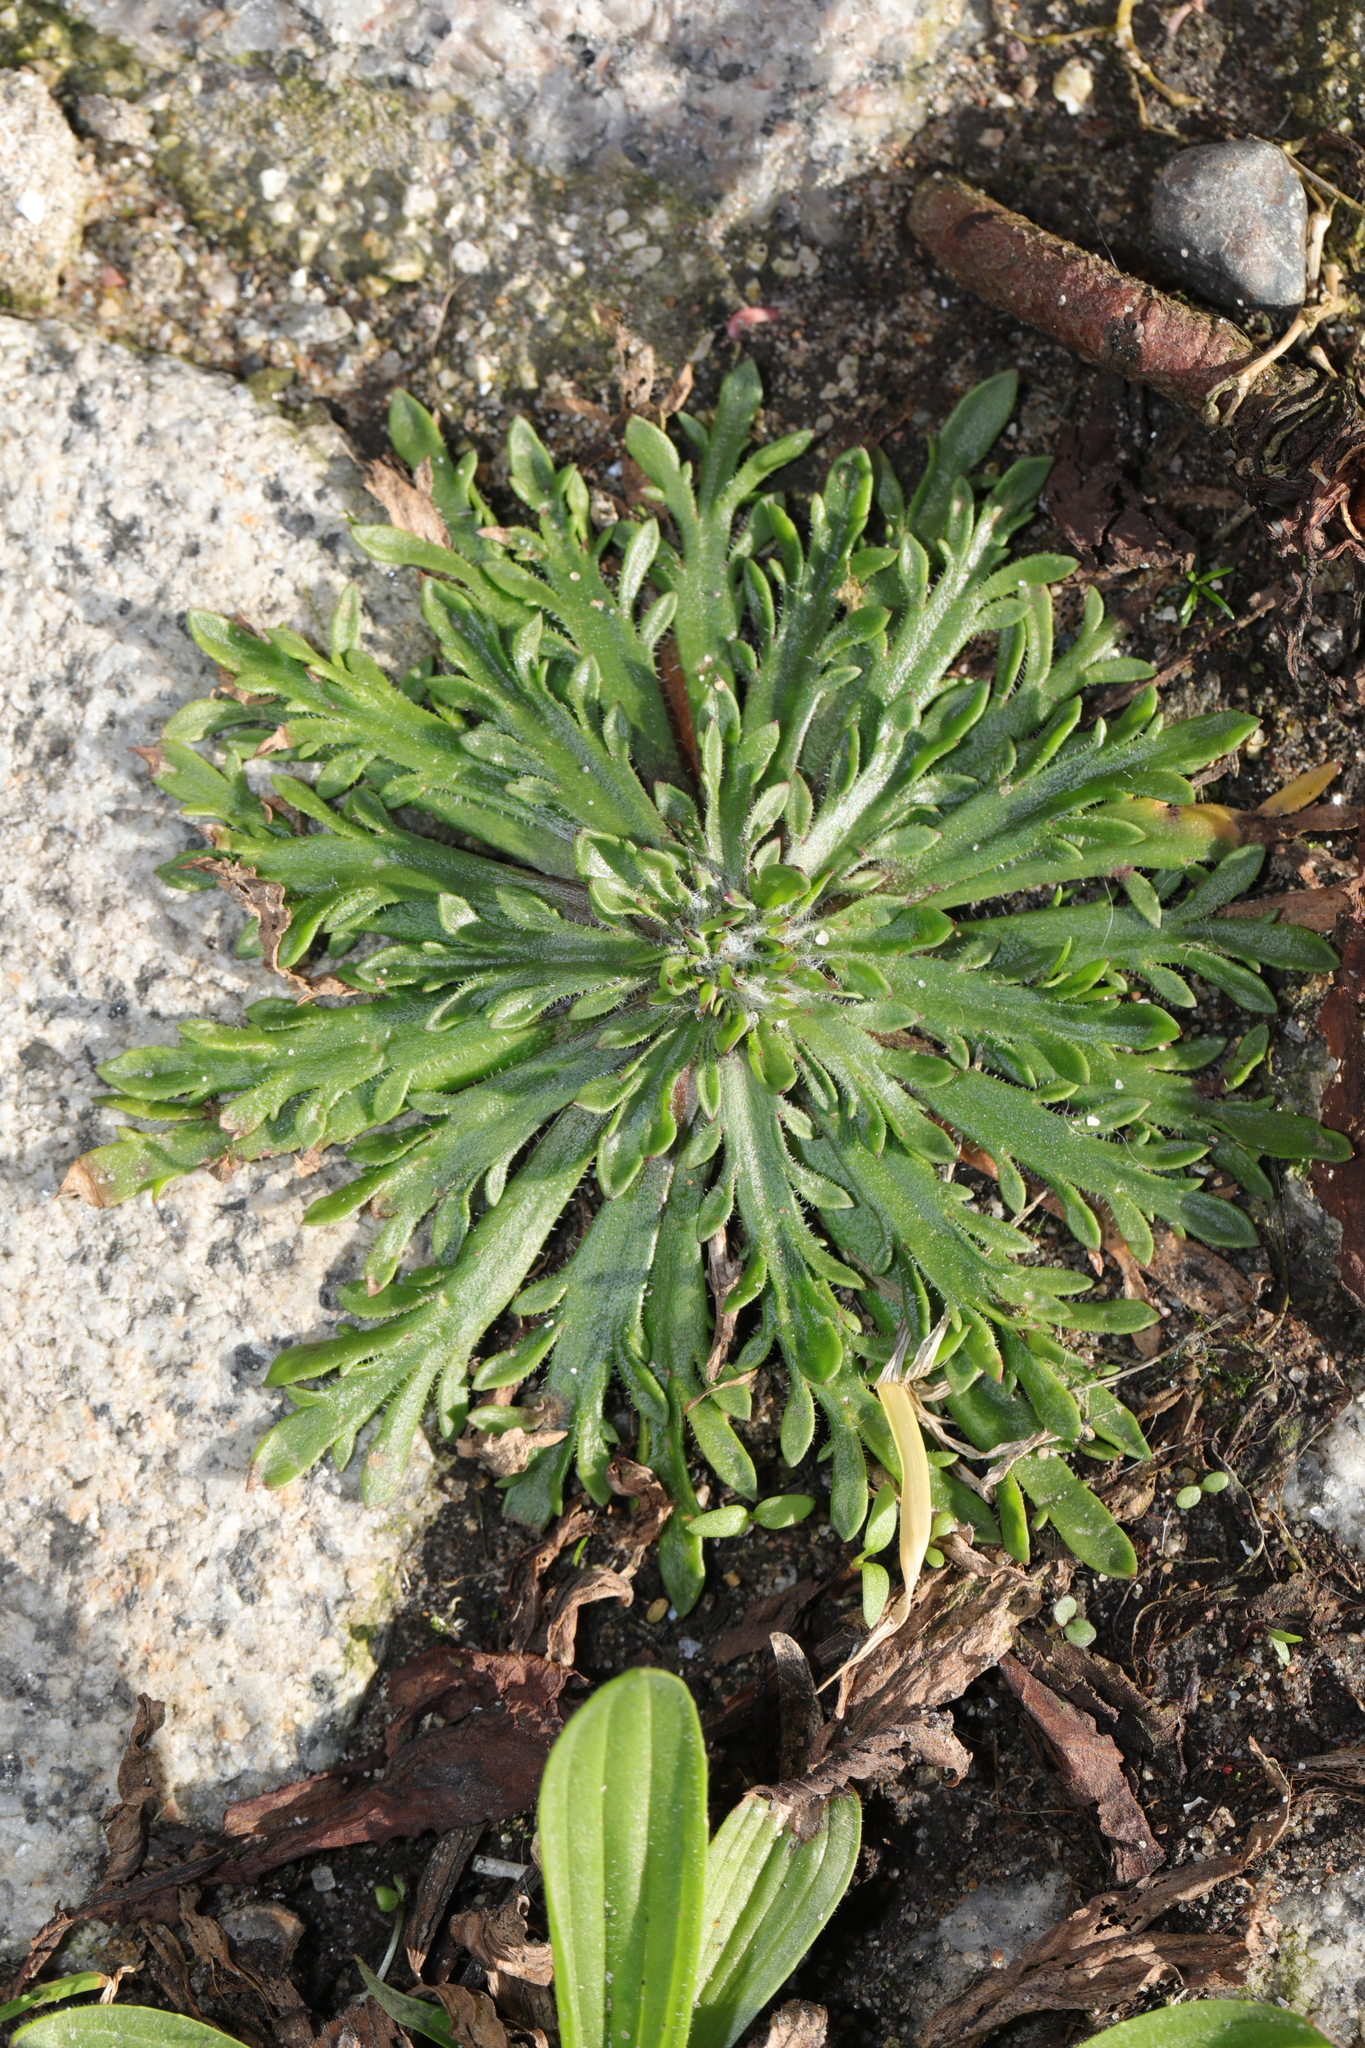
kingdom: Plantae
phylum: Tracheophyta
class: Magnoliopsida
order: Lamiales
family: Plantaginaceae
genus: Plantago
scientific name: Plantago coronopus
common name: Buck's-horn plantain
